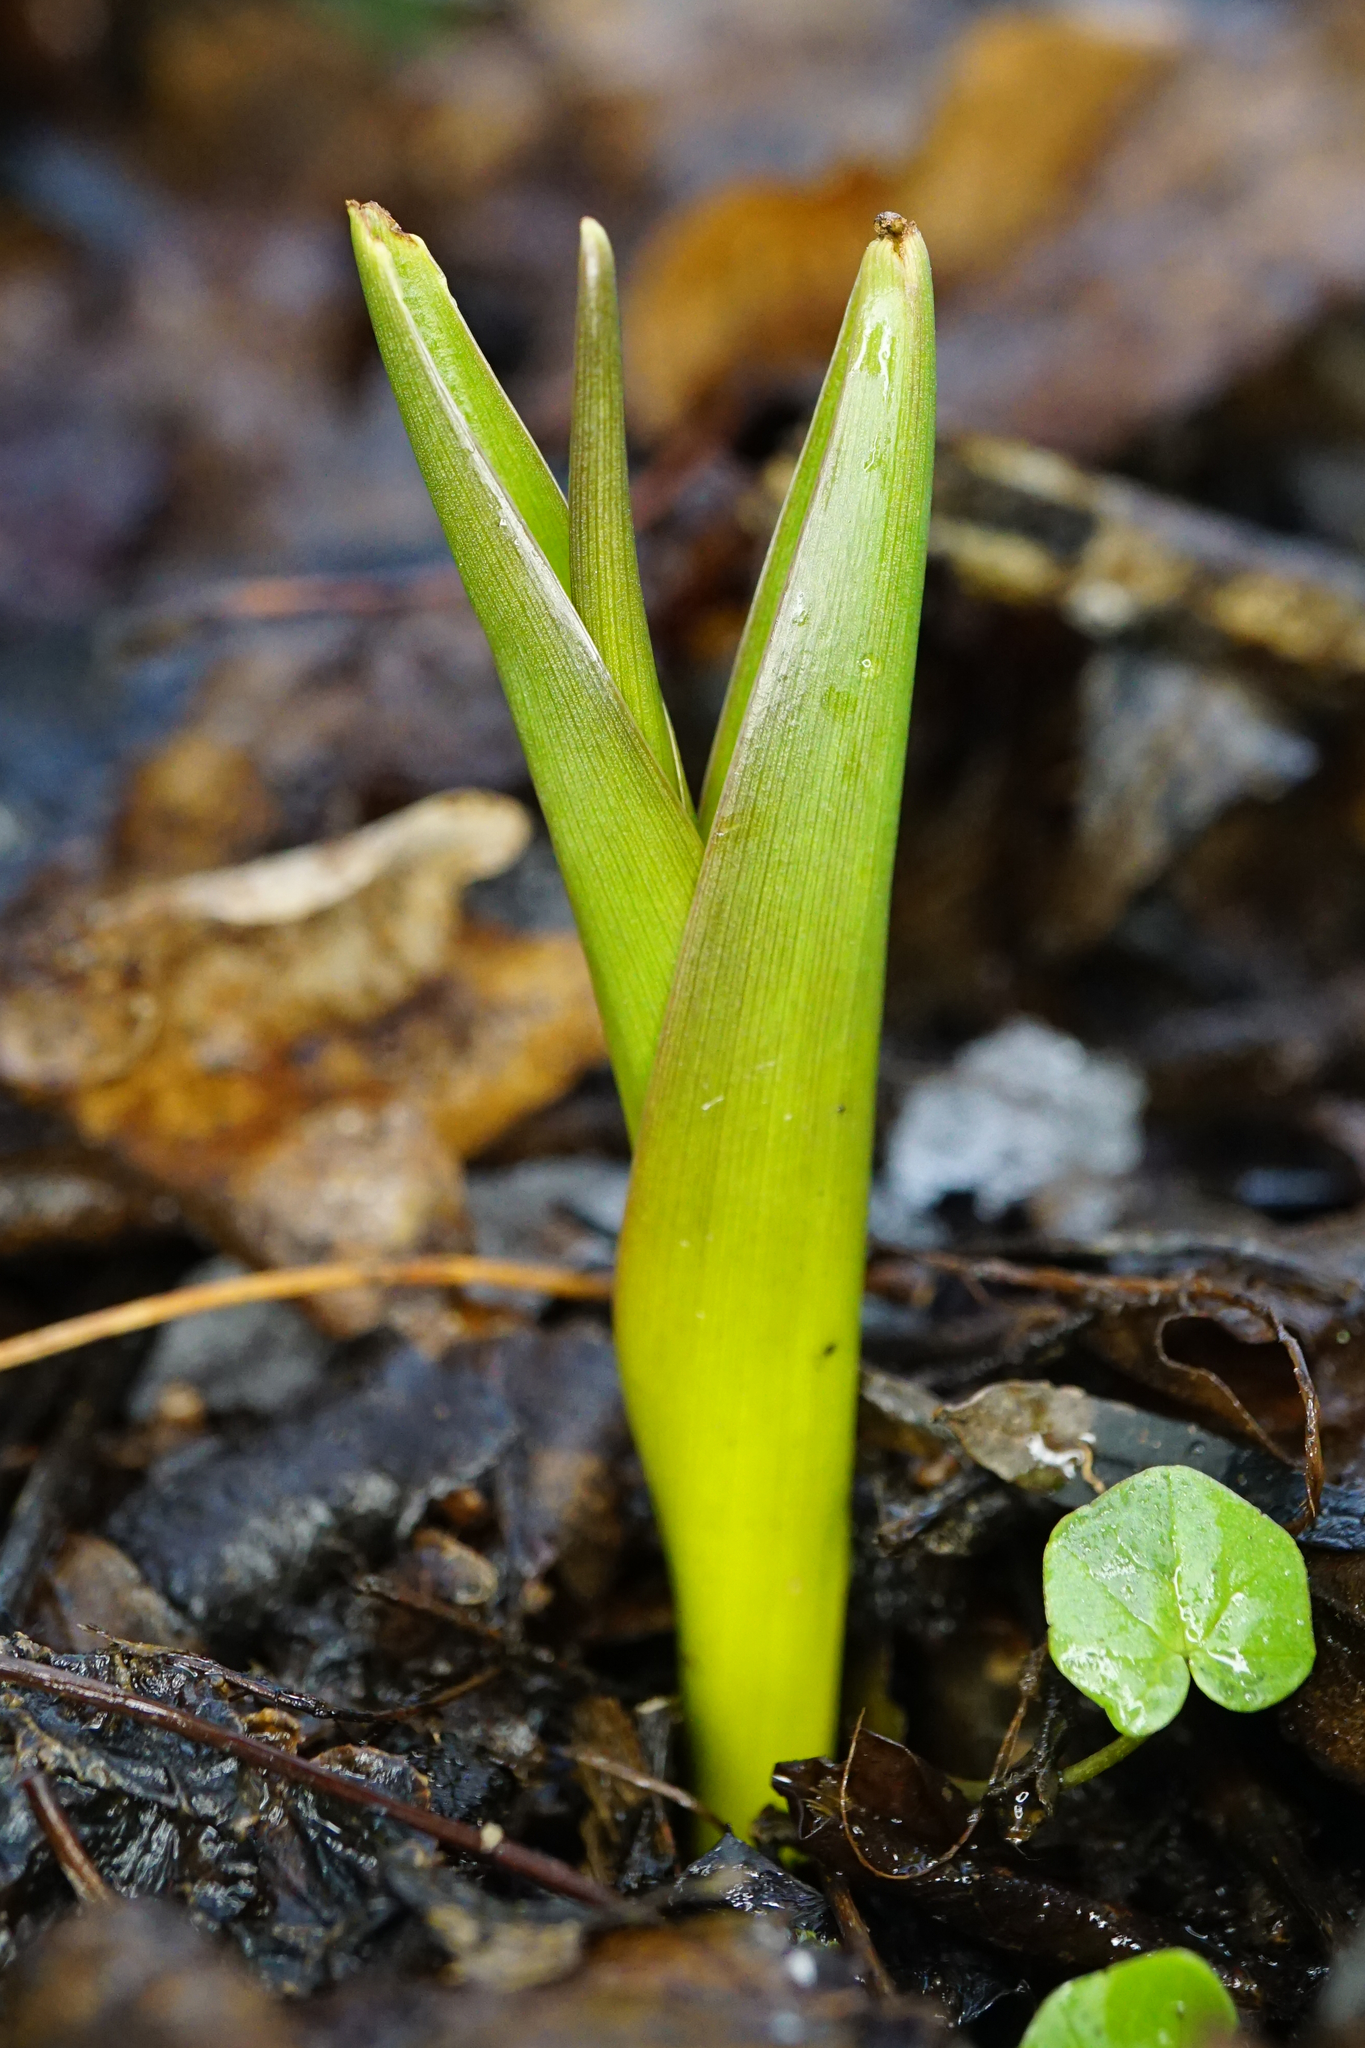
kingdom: Plantae
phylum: Tracheophyta
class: Liliopsida
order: Liliales
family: Colchicaceae
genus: Colchicum
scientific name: Colchicum autumnale
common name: Autumn crocus
